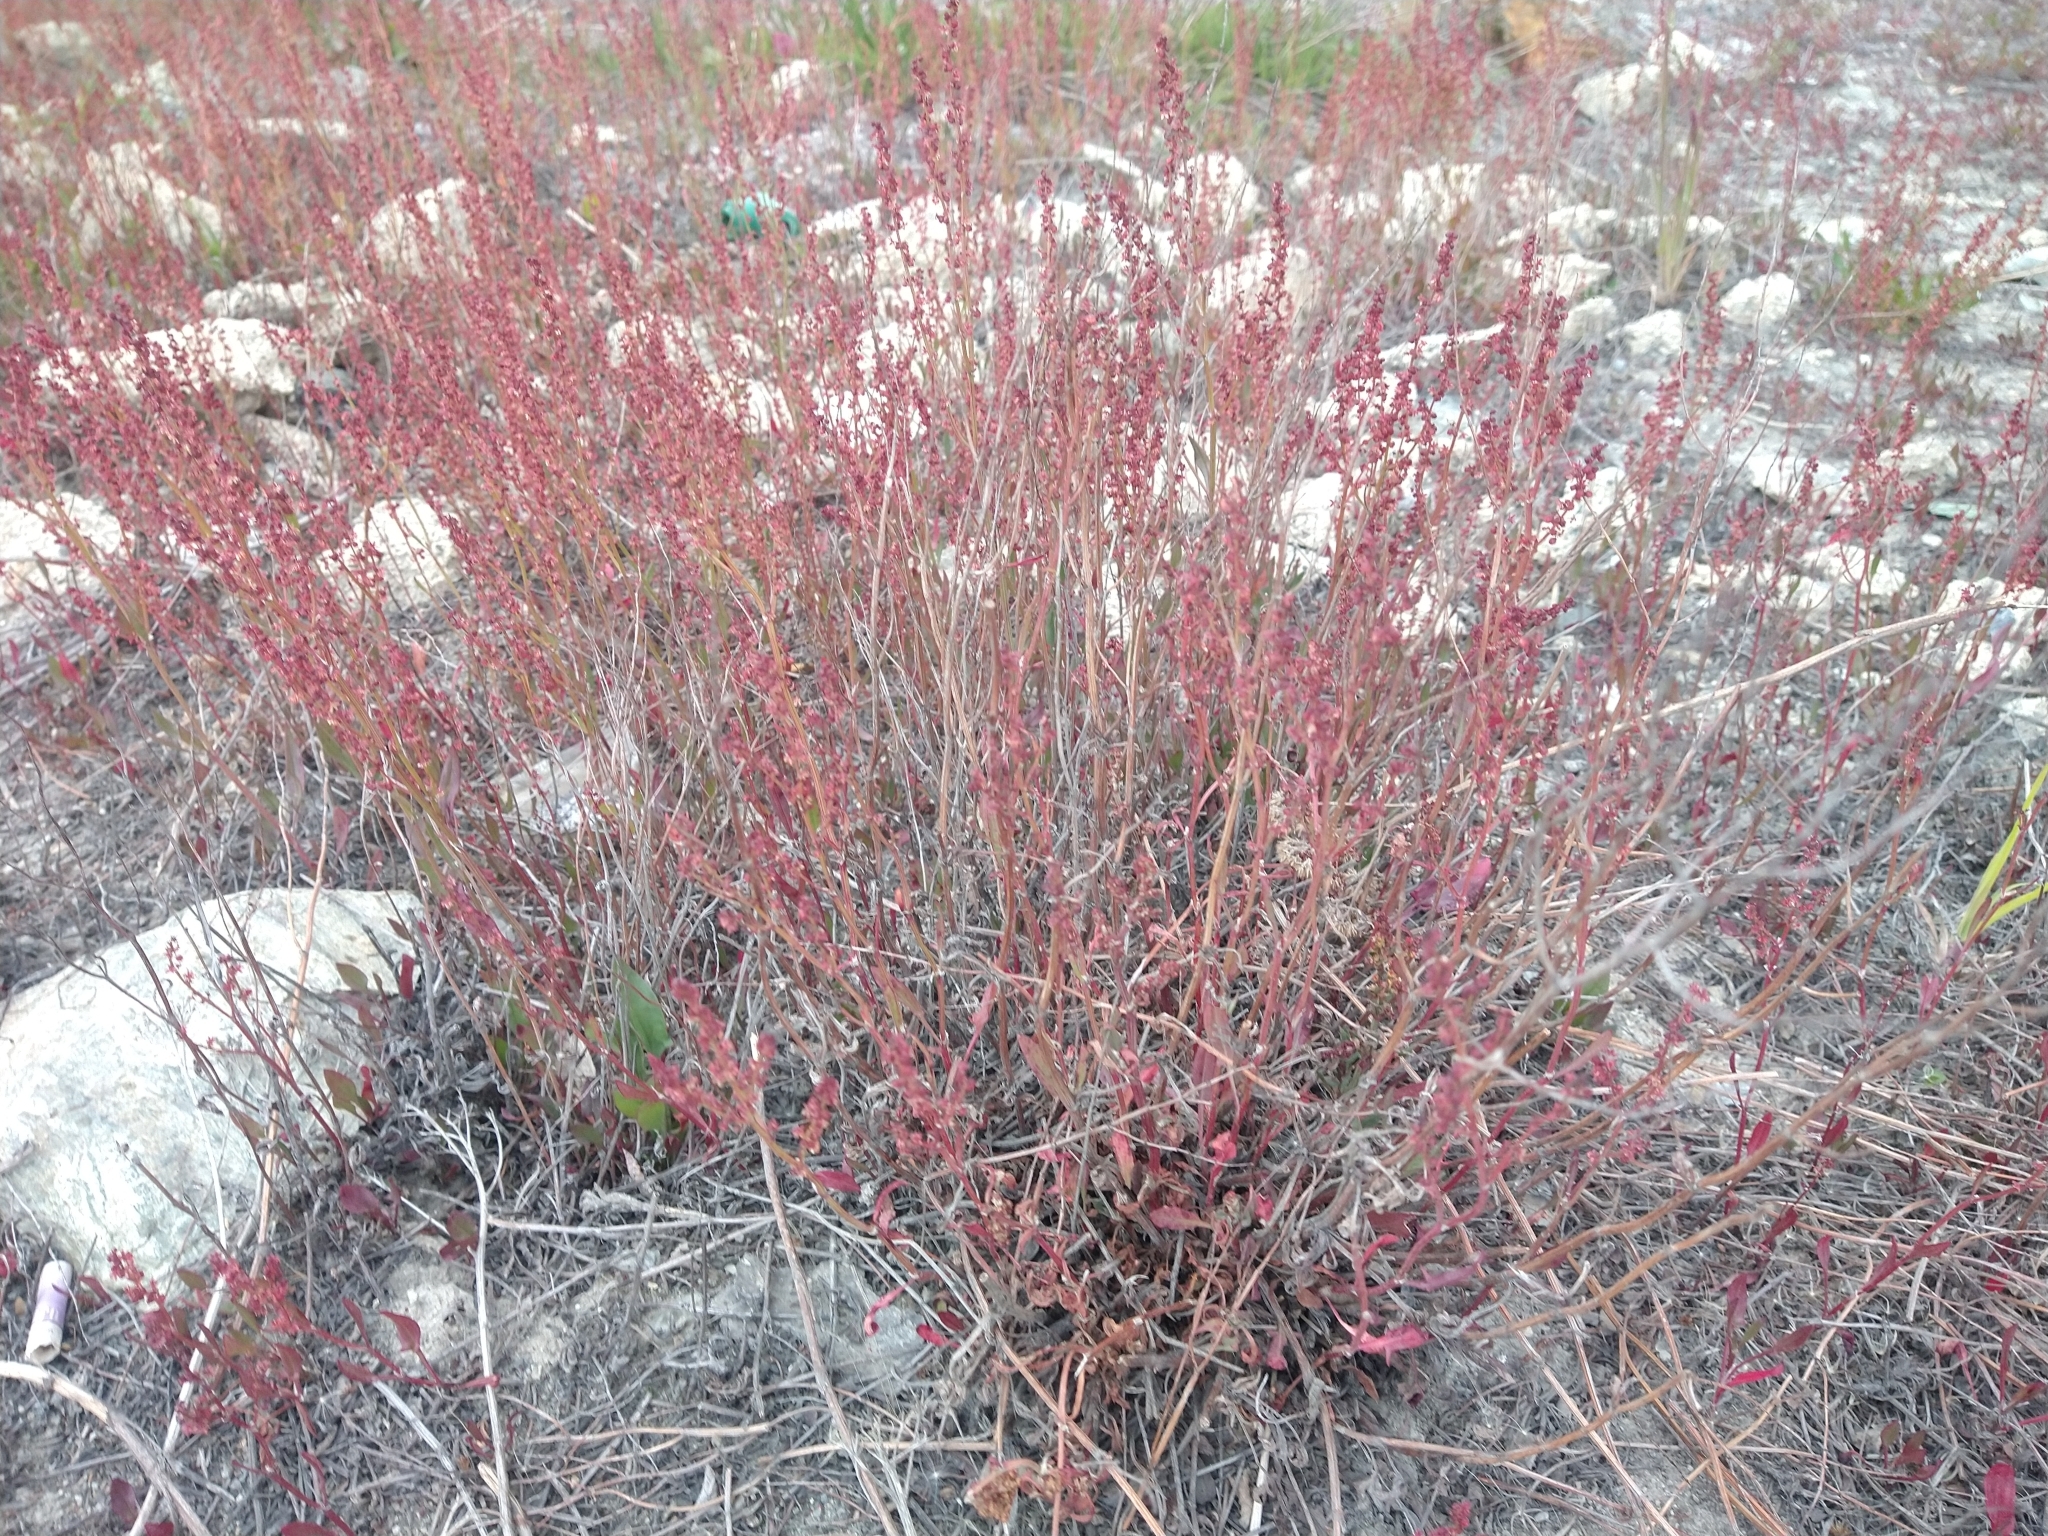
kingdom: Plantae
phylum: Tracheophyta
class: Magnoliopsida
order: Caryophyllales
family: Polygonaceae
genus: Rumex
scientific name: Rumex acetosella
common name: Common sheep sorrel
